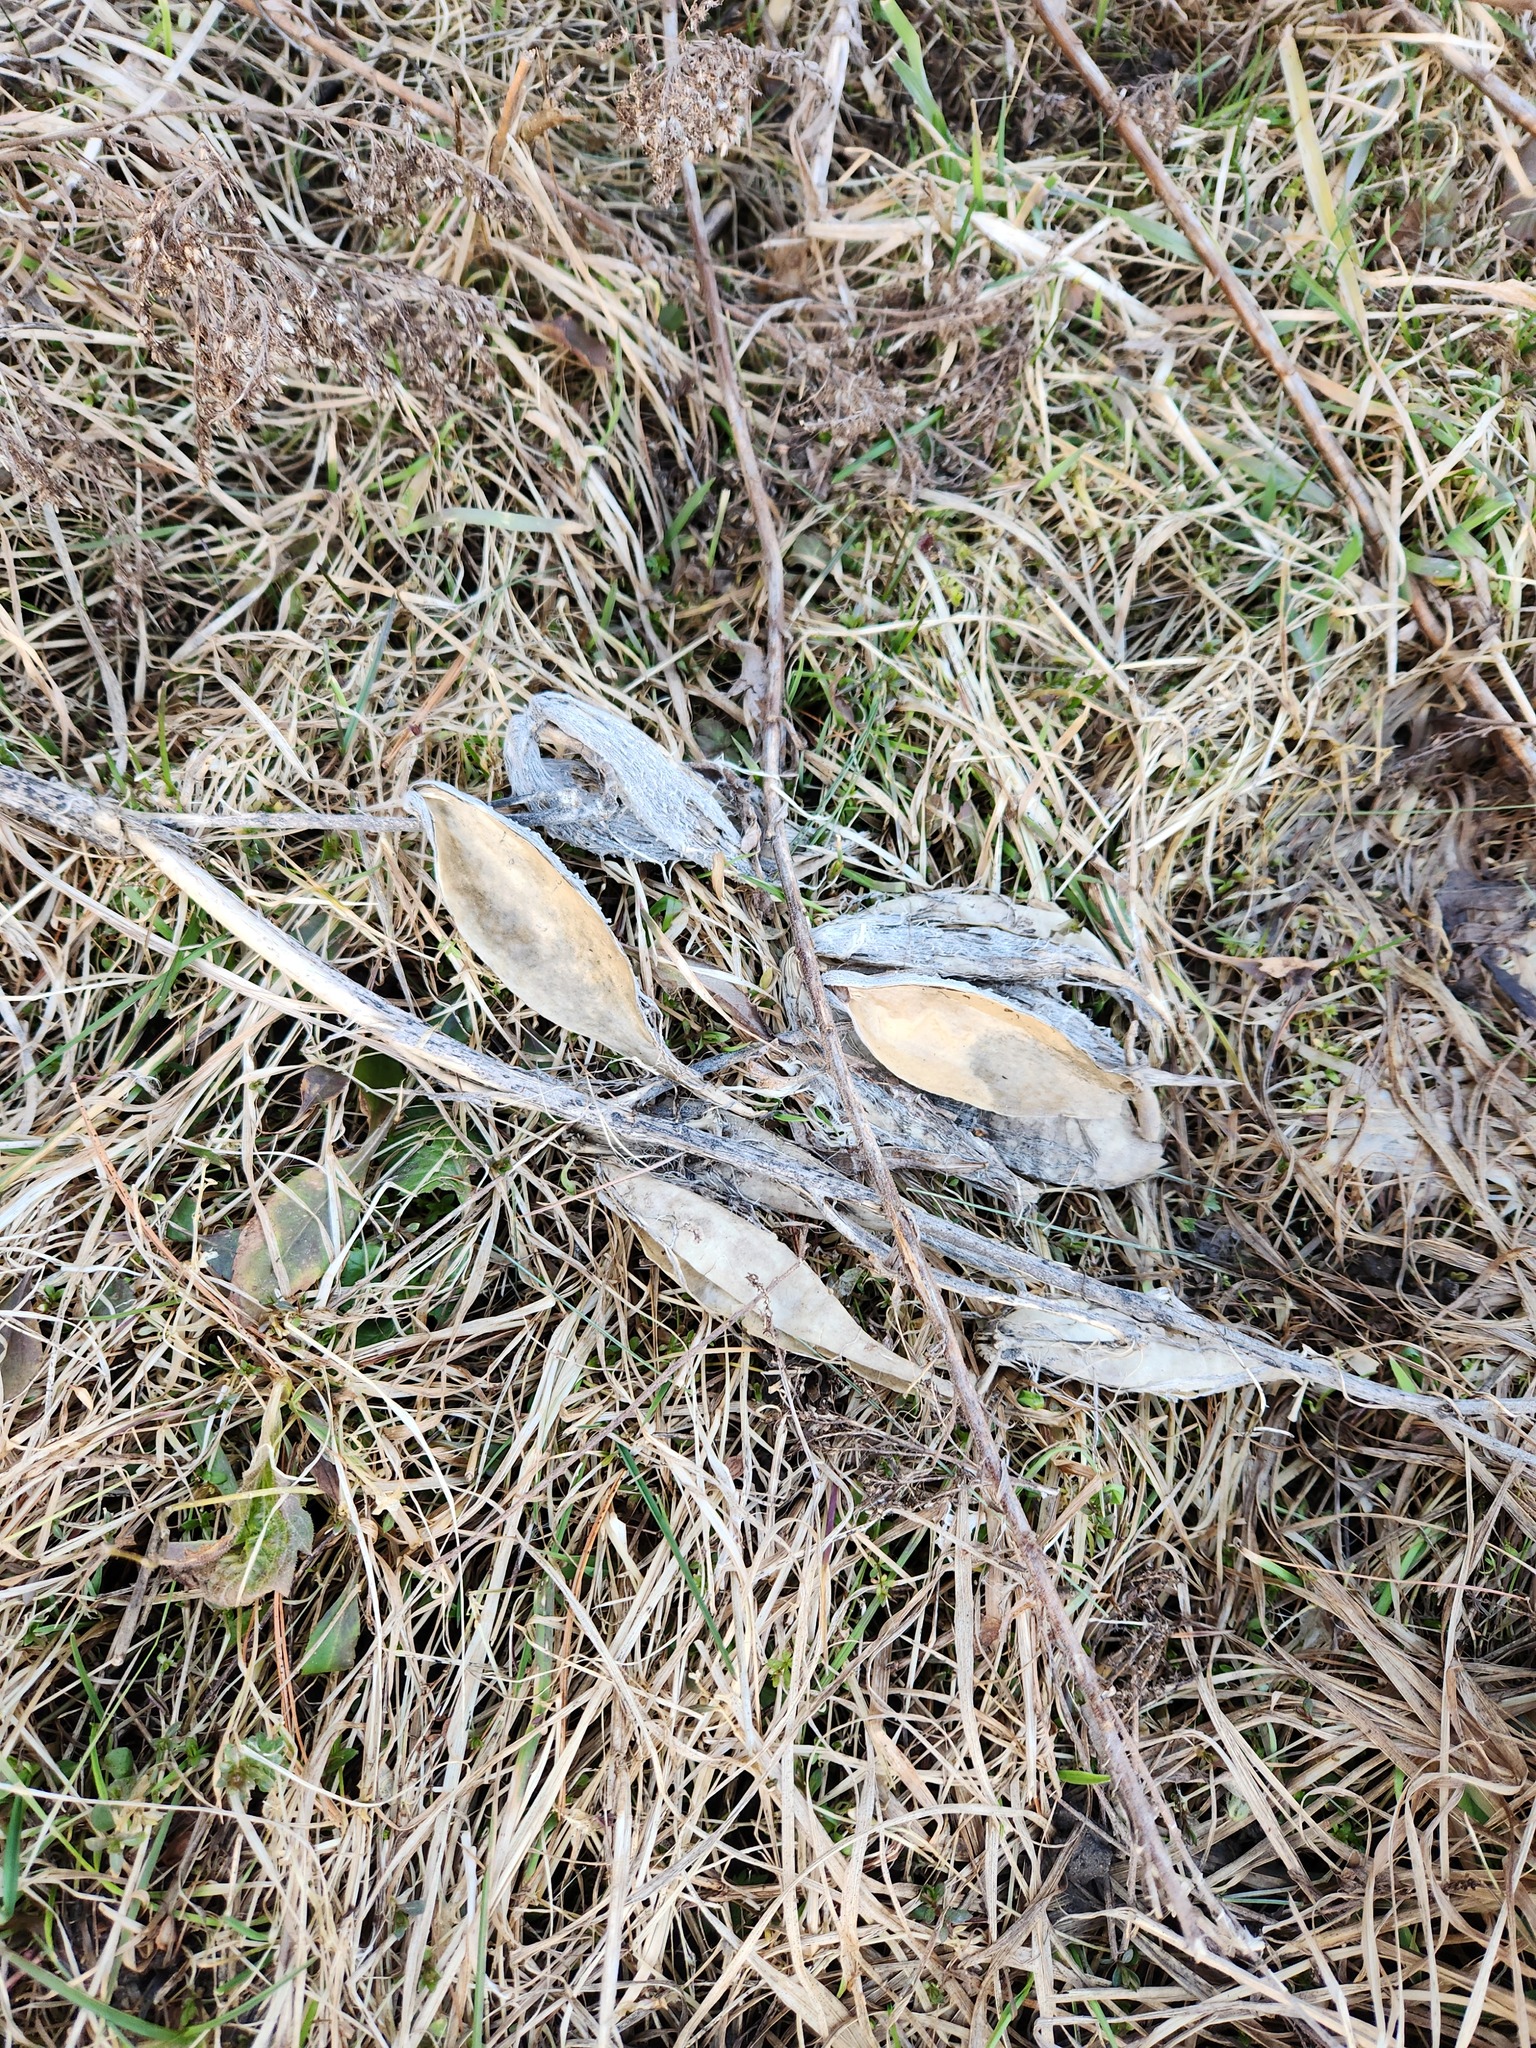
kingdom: Plantae
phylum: Tracheophyta
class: Magnoliopsida
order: Gentianales
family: Apocynaceae
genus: Asclepias
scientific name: Asclepias syriaca
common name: Common milkweed
